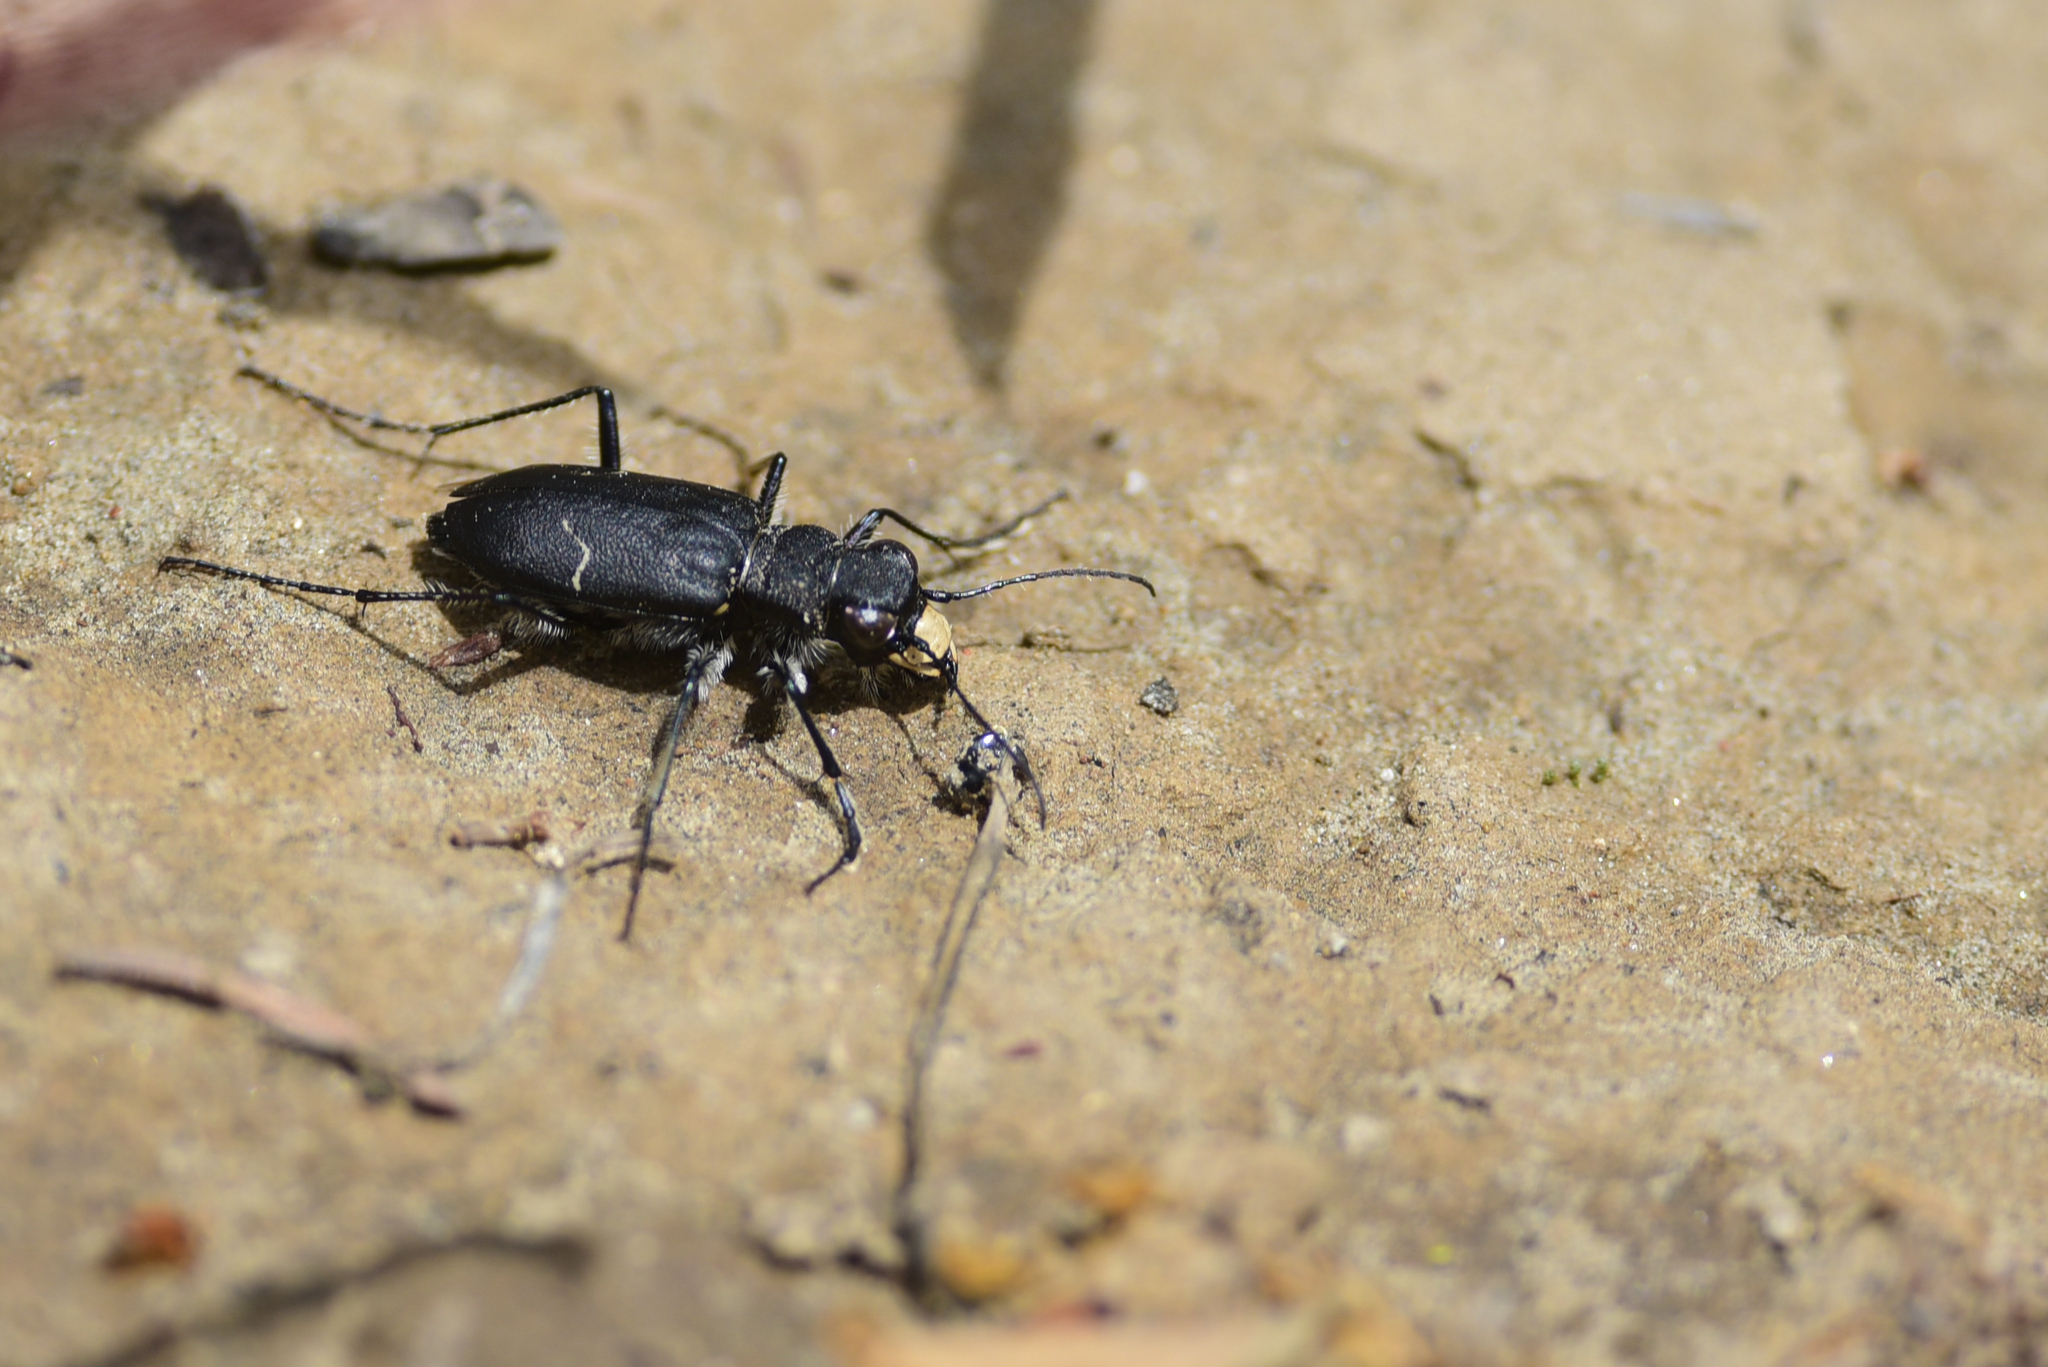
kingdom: Animalia
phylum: Arthropoda
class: Insecta
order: Coleoptera
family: Carabidae
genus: Cicindela
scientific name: Cicindela longilabris
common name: Boreal long-lipped tiger beetle
